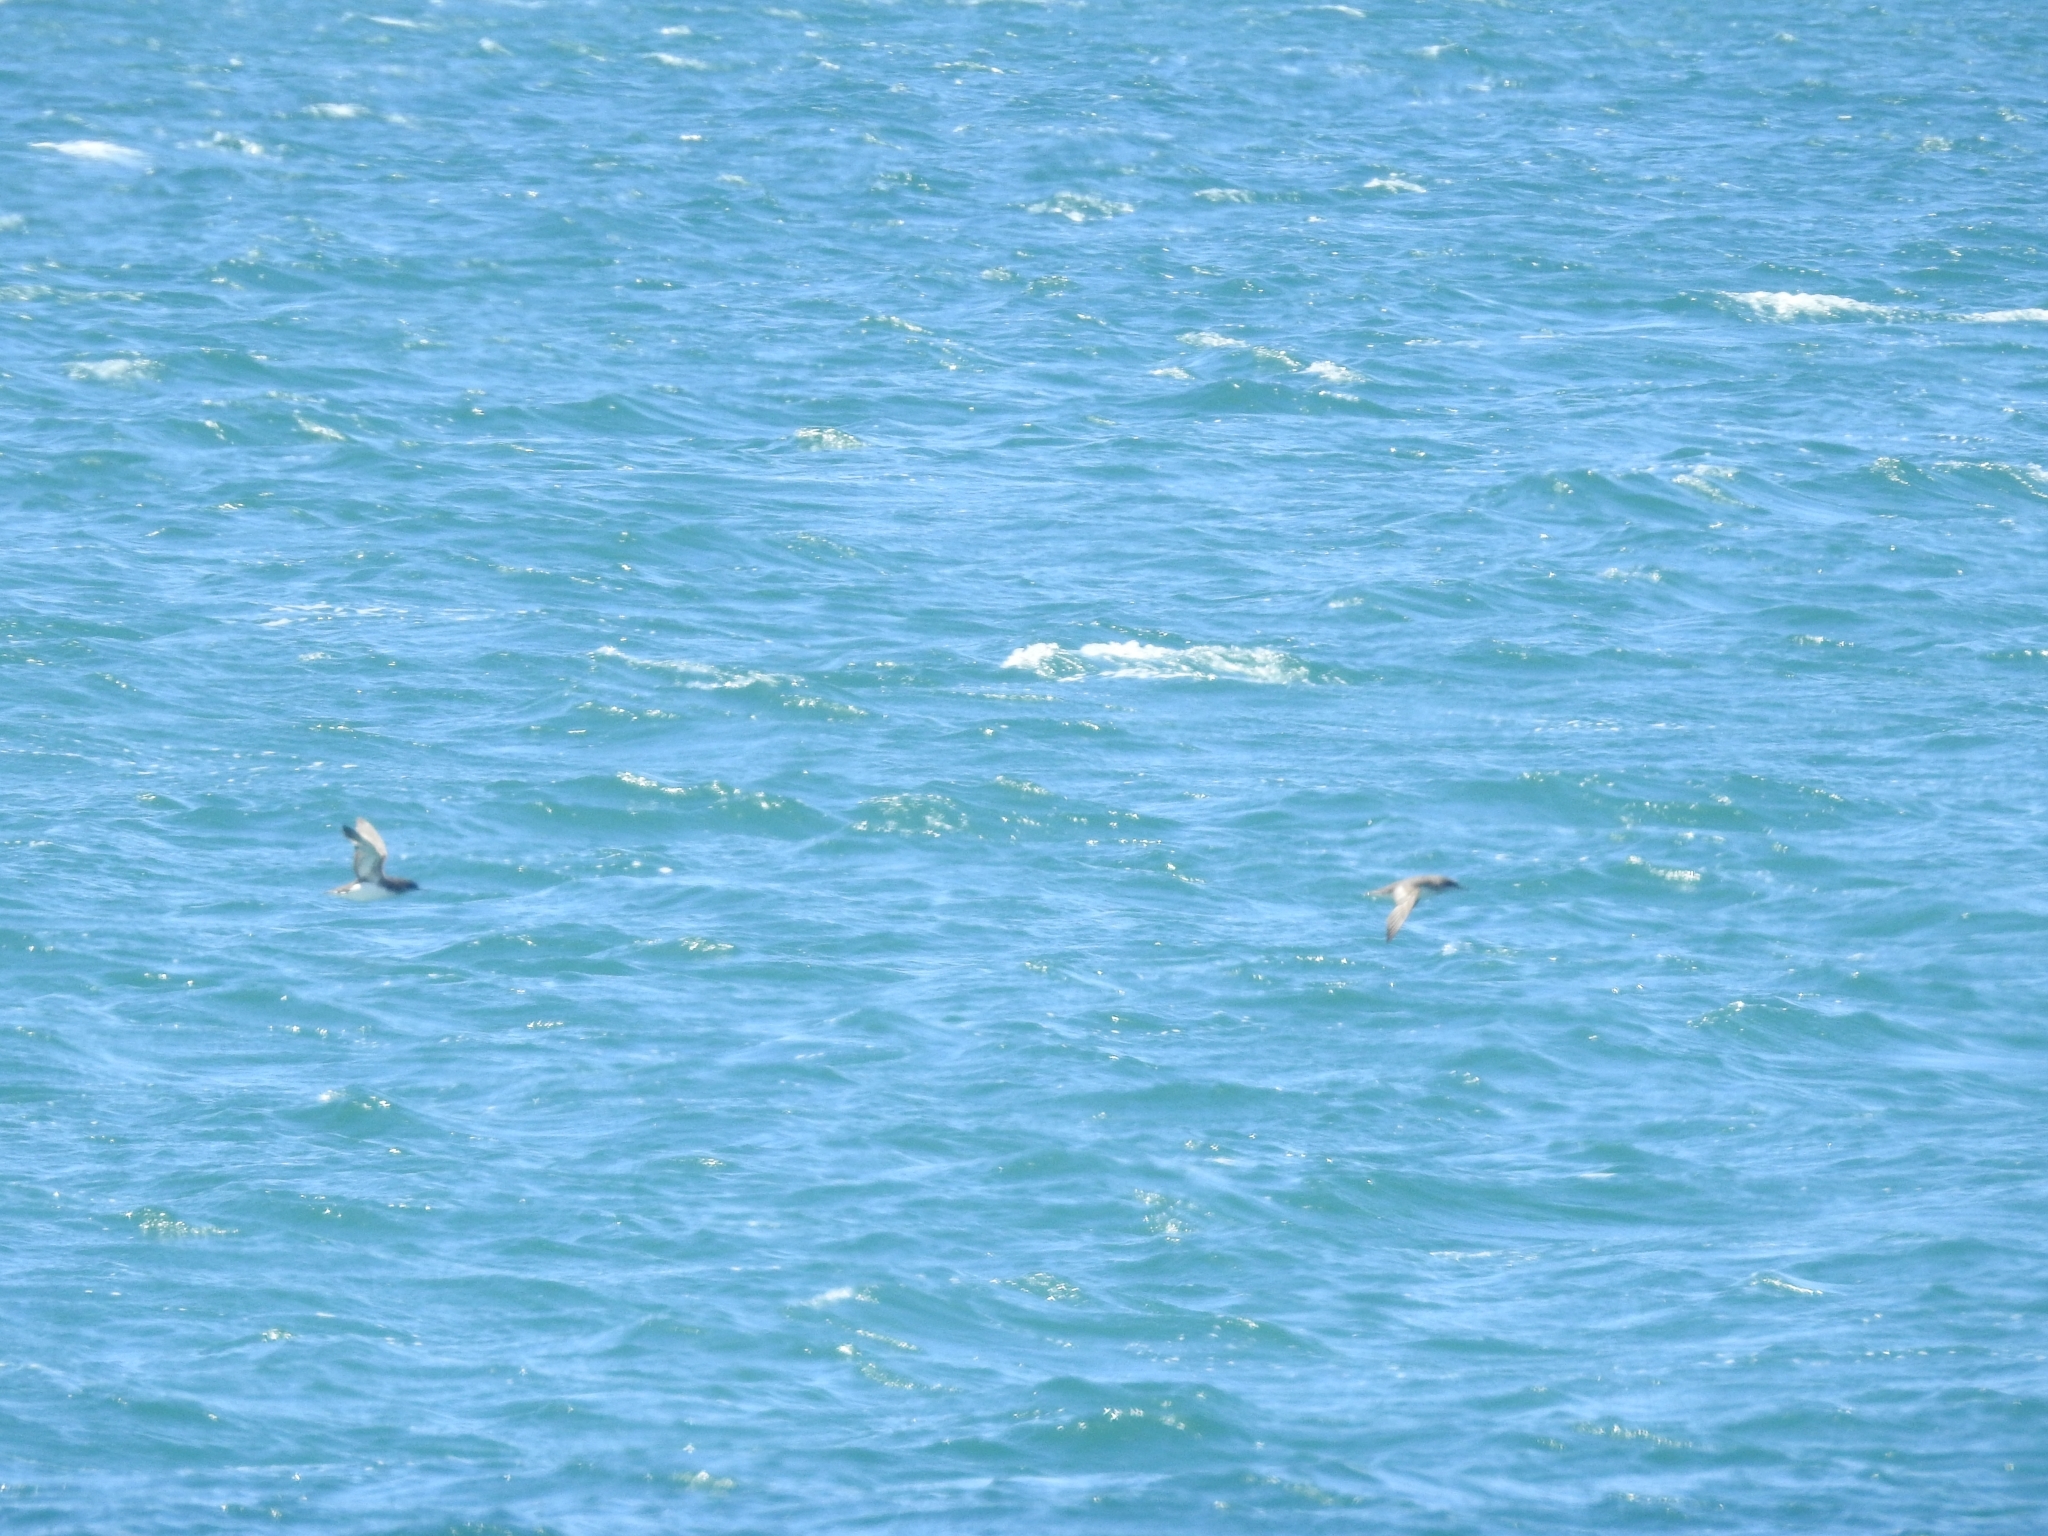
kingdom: Animalia
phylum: Chordata
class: Aves
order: Procellariiformes
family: Procellariidae
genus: Puffinus
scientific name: Puffinus gavia
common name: Fluttering shearwater
